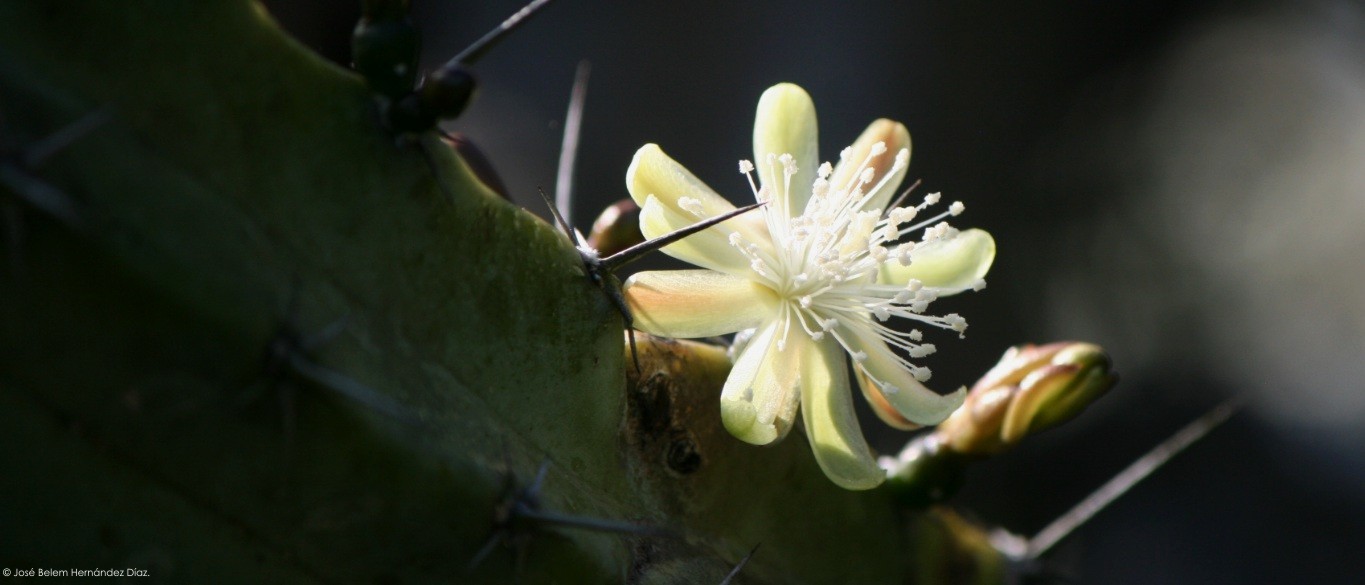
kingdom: Plantae
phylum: Tracheophyta
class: Magnoliopsida
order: Caryophyllales
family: Cactaceae
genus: Myrtillocactus
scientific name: Myrtillocactus geometrizans
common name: Bilberry cactus
